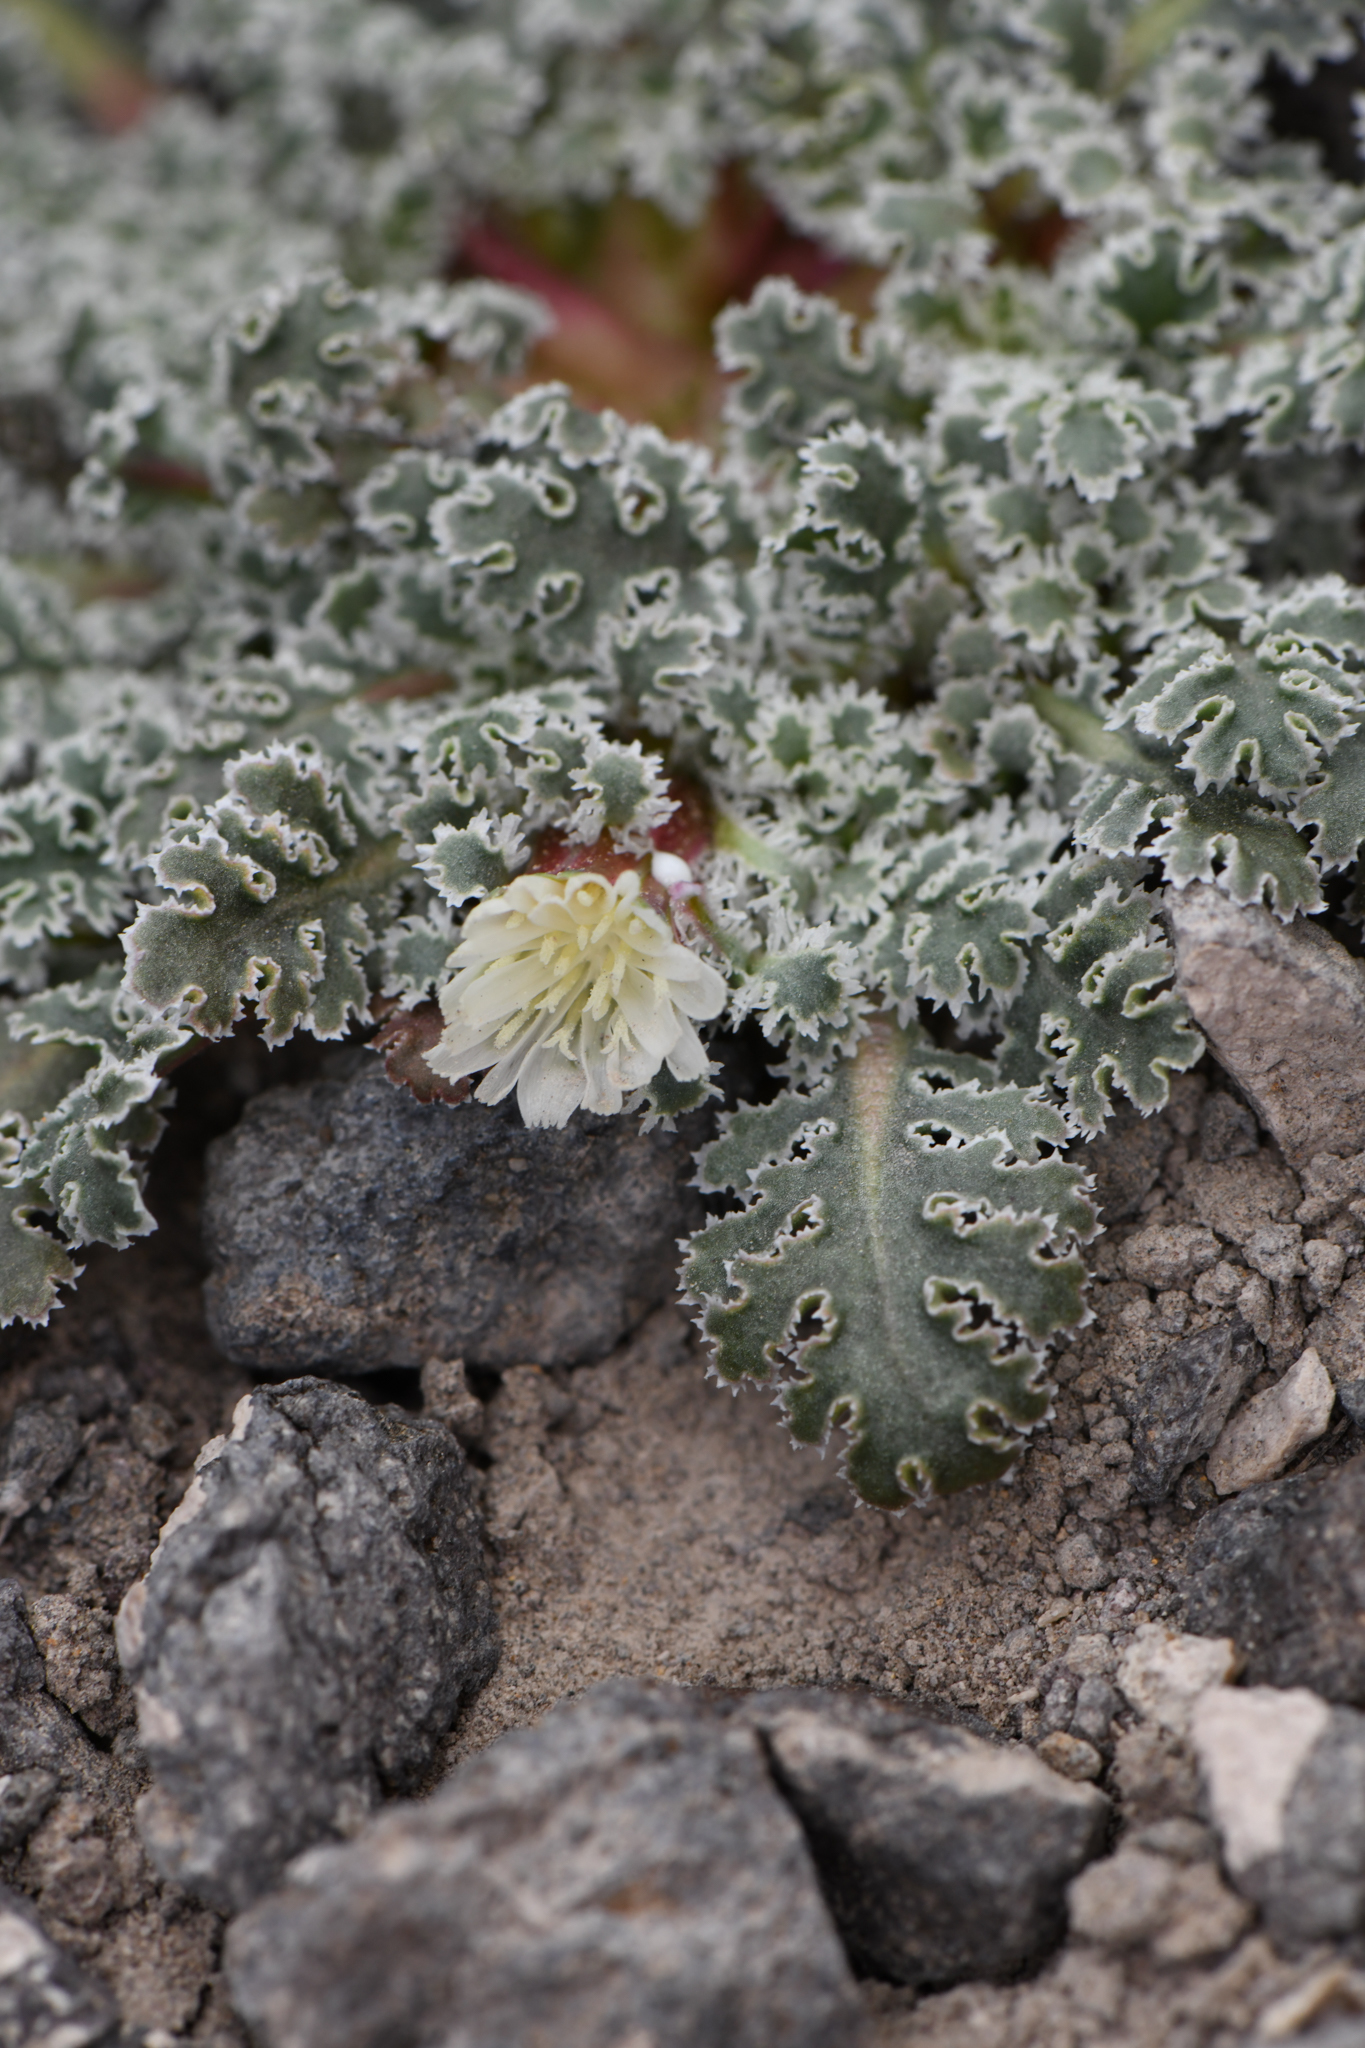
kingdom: Plantae
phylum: Tracheophyta
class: Magnoliopsida
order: Asterales
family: Asteraceae
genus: Glyptopleura
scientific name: Glyptopleura marginata
